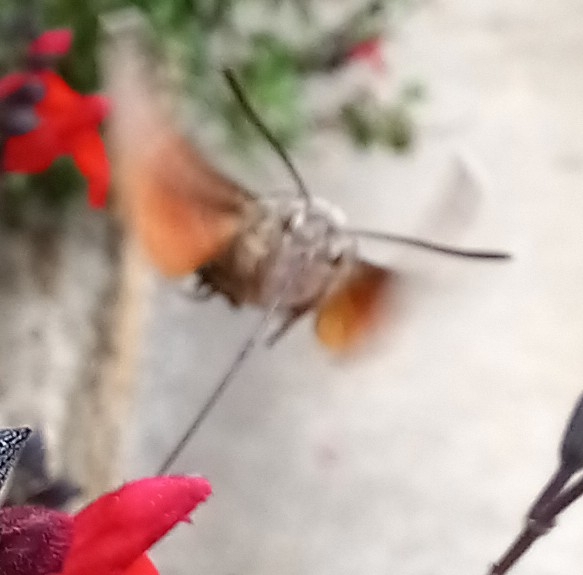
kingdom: Animalia
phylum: Arthropoda
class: Insecta
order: Lepidoptera
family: Sphingidae
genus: Macroglossum
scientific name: Macroglossum stellatarum
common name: Humming-bird hawk-moth
